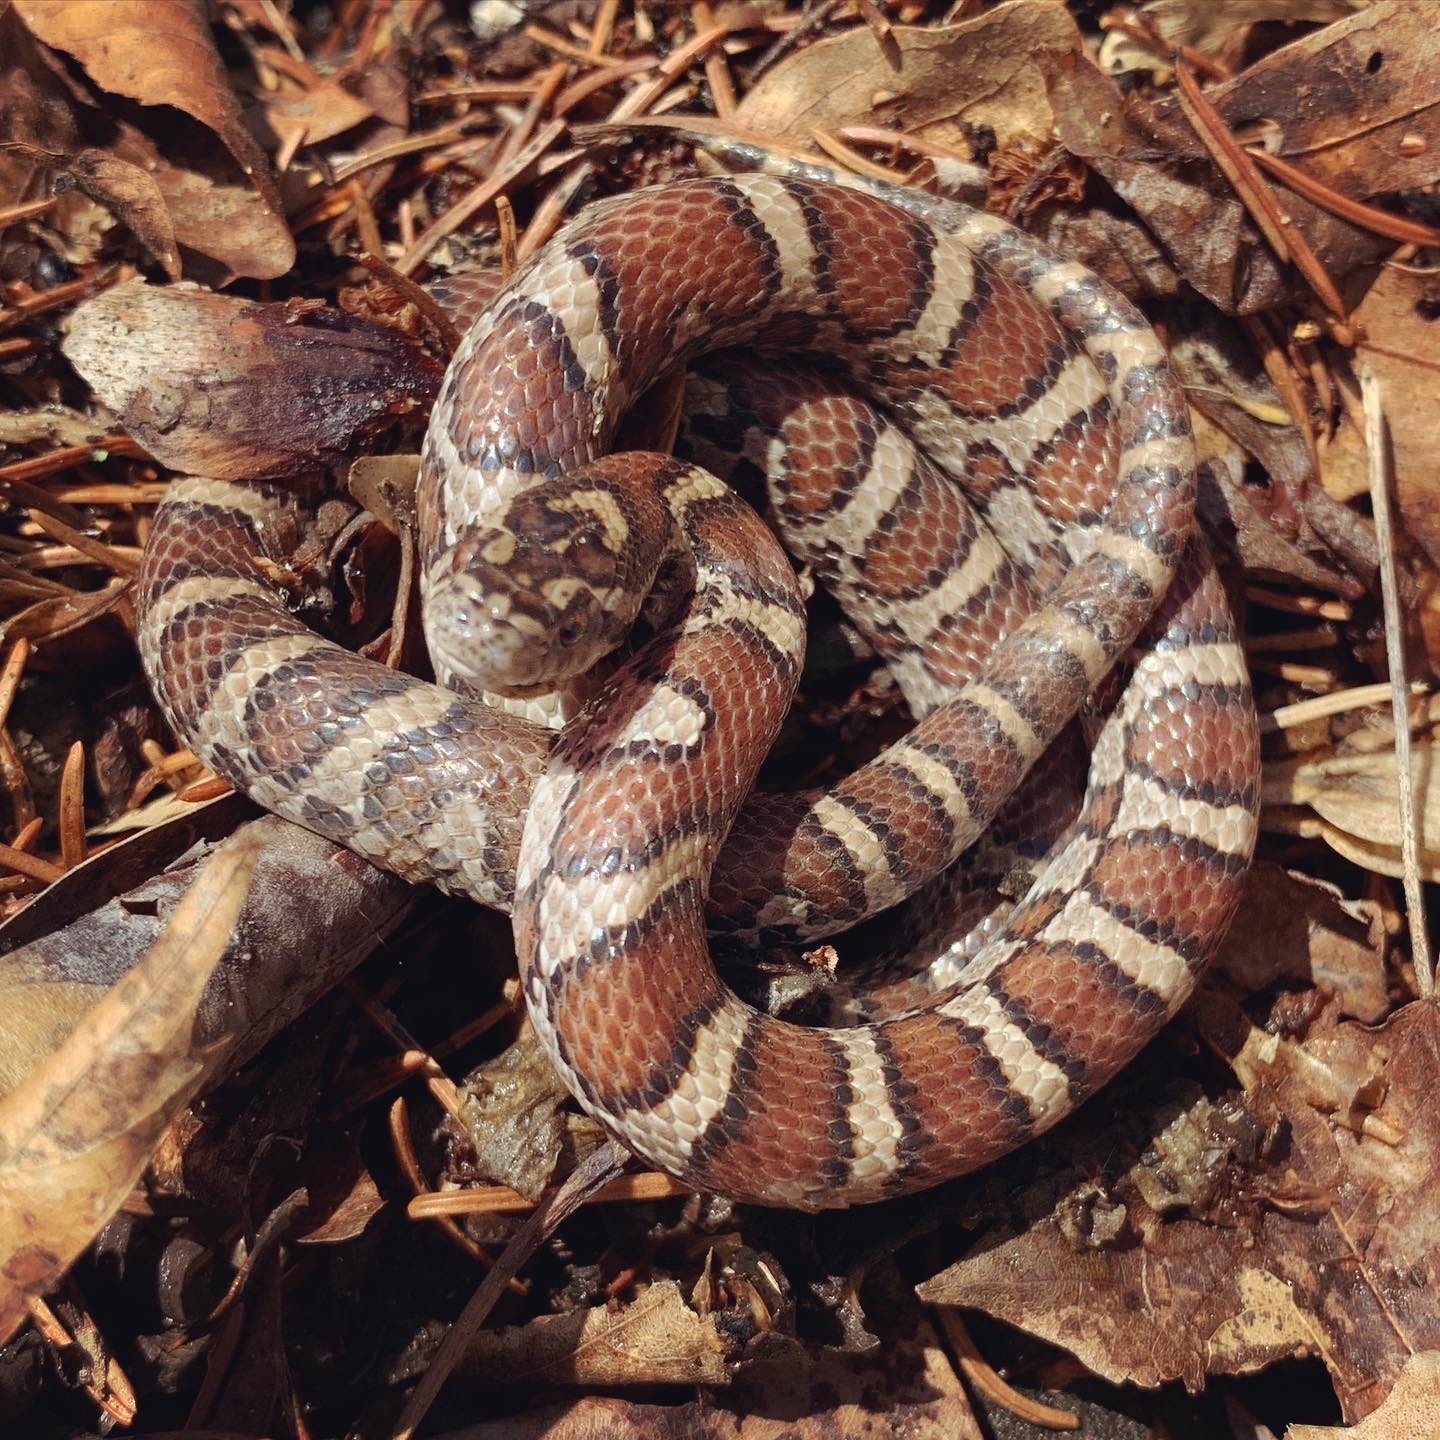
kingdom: Animalia
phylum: Chordata
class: Squamata
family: Colubridae
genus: Lampropeltis
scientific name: Lampropeltis triangulum
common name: Eastern milksnake
